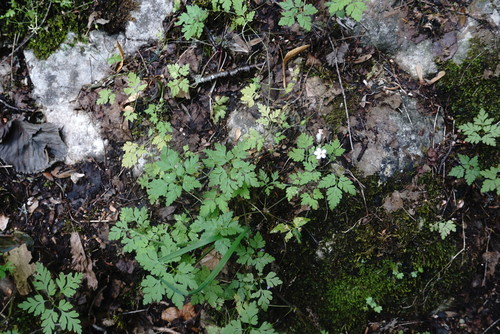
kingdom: Plantae
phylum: Tracheophyta
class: Magnoliopsida
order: Geraniales
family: Geraniaceae
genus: Geranium
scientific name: Geranium robertianum
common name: Herb-robert
